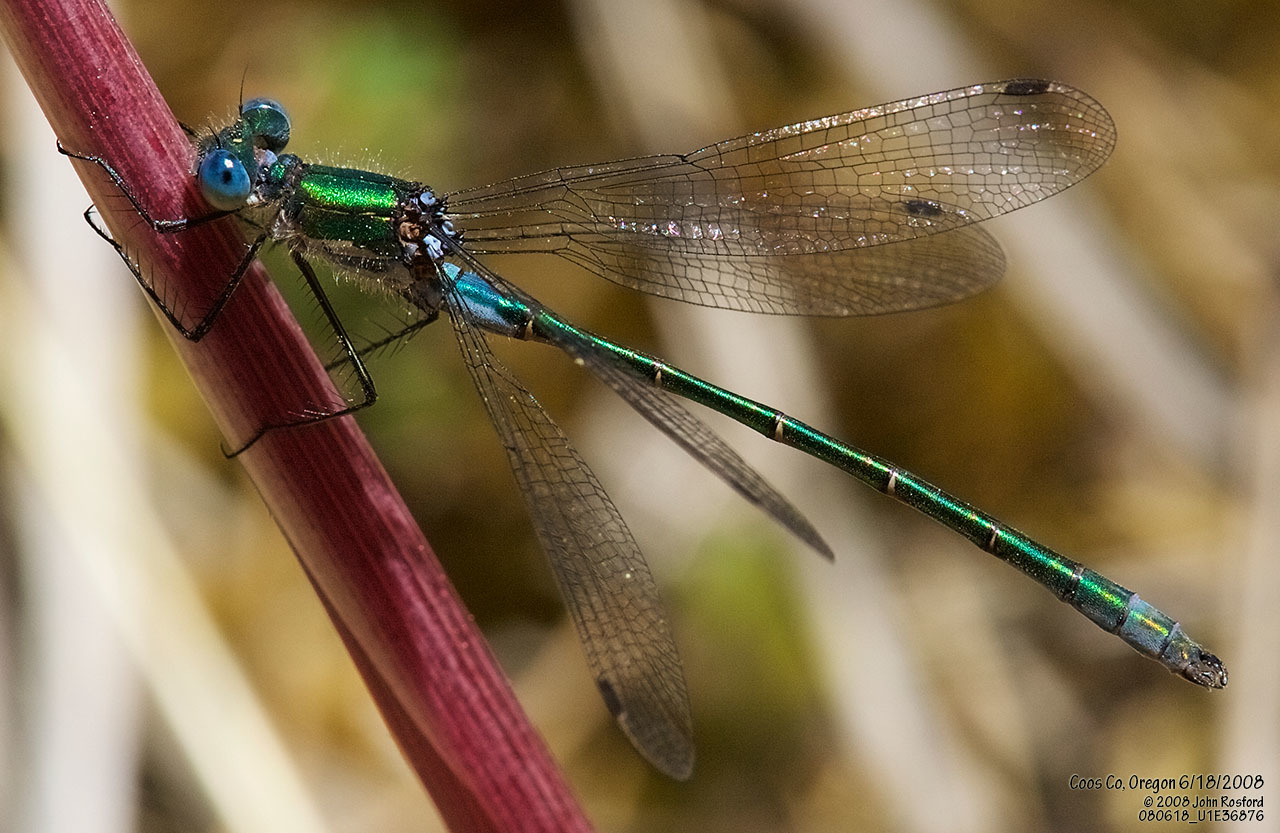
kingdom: Animalia
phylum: Arthropoda
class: Insecta
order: Odonata
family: Lestidae
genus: Lestes
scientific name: Lestes dryas
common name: Scarce emerald damselfly
